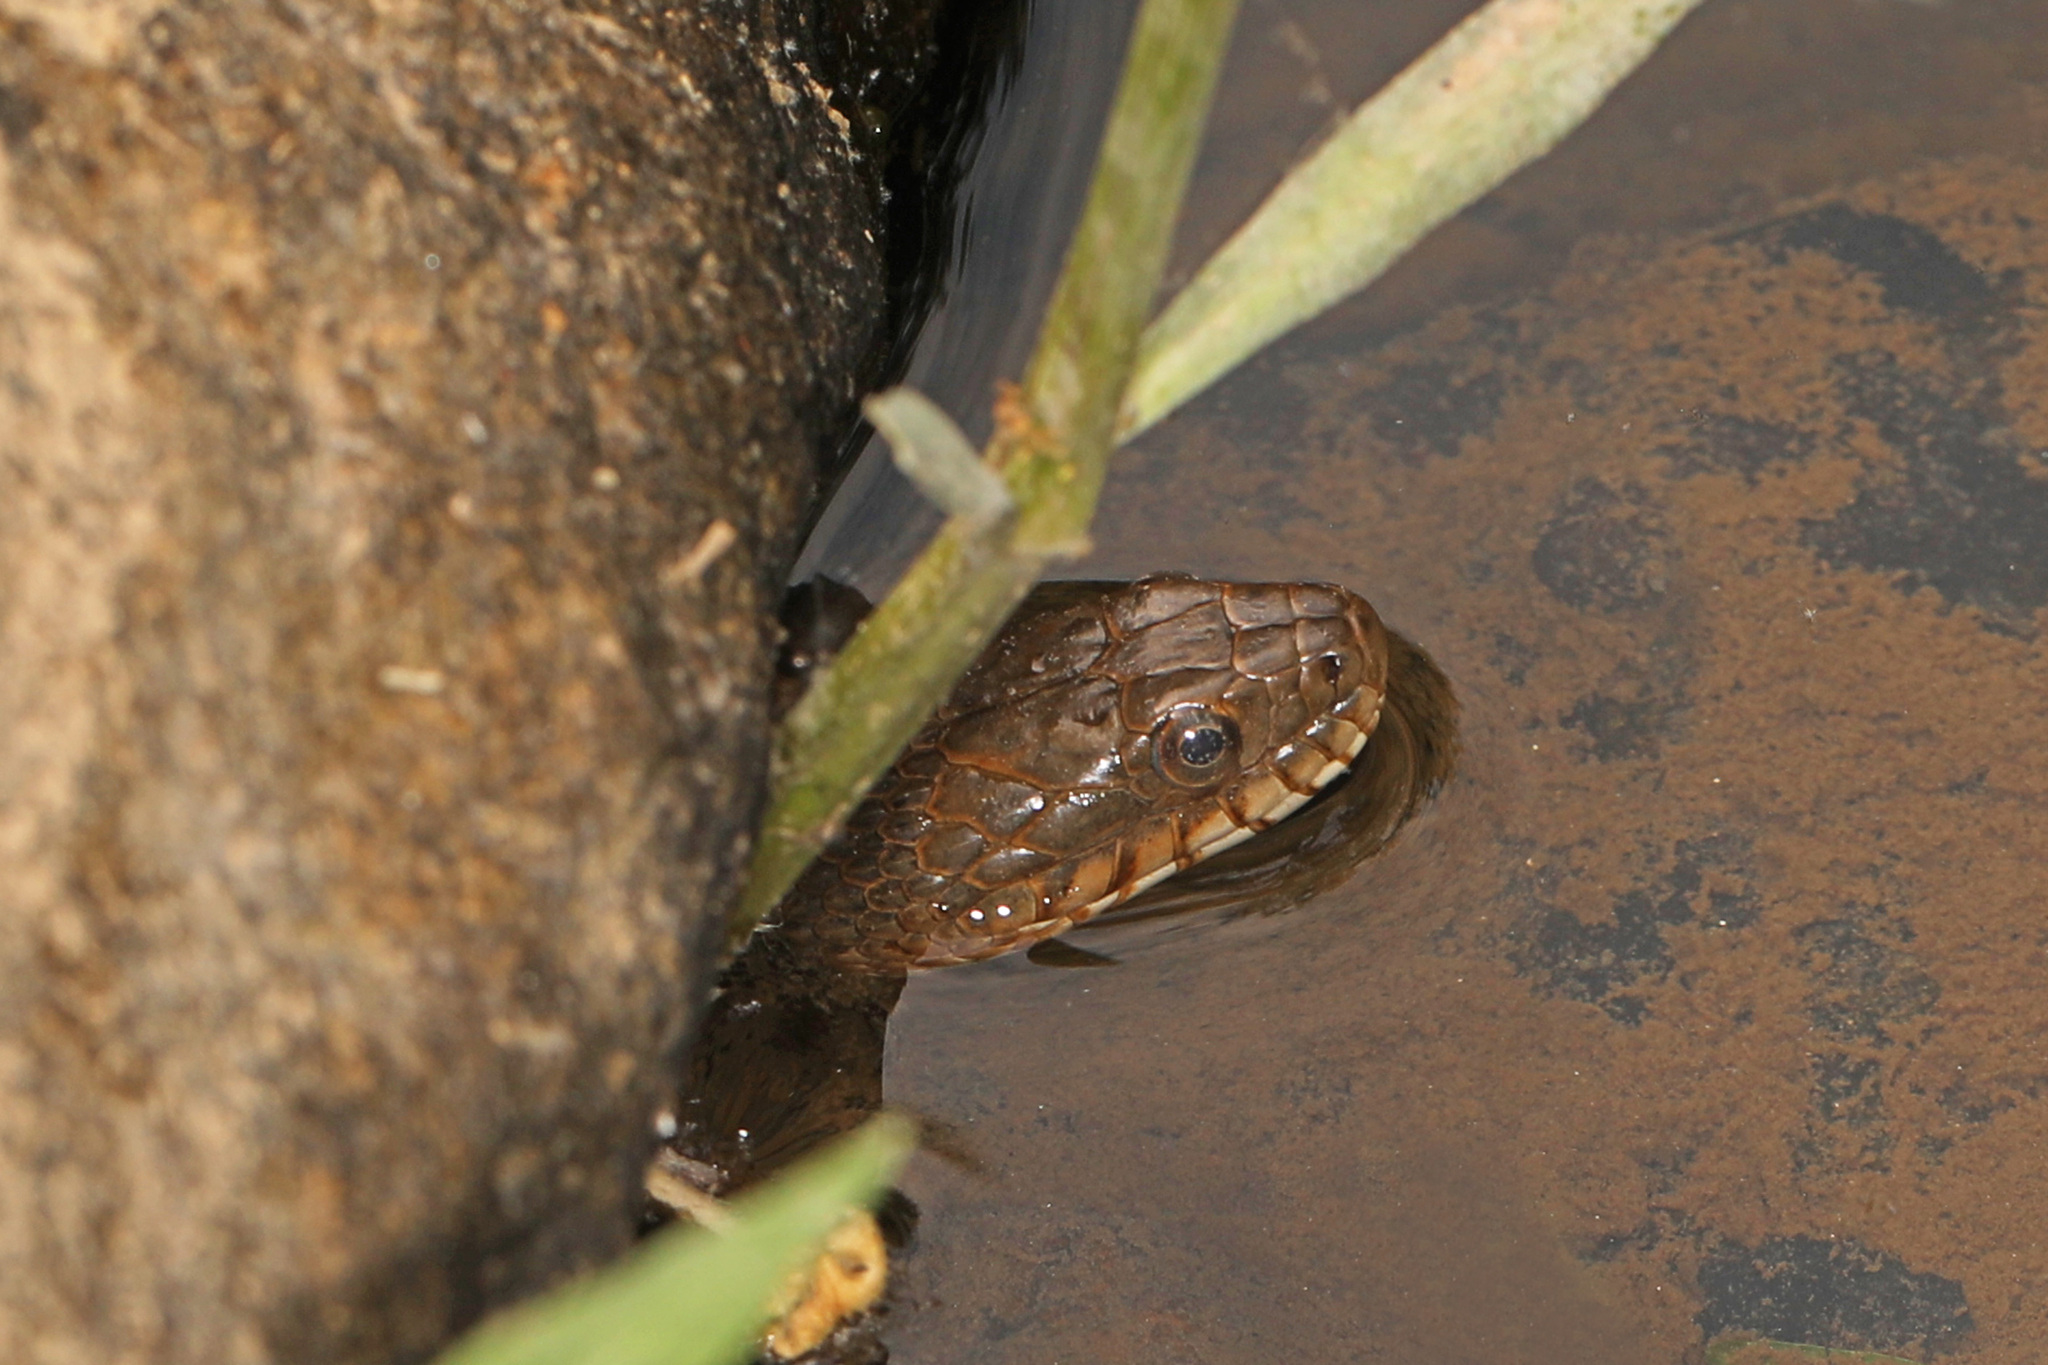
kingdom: Animalia
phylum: Chordata
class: Squamata
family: Colubridae
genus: Nerodia
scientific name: Nerodia sipedon
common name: Northern water snake
